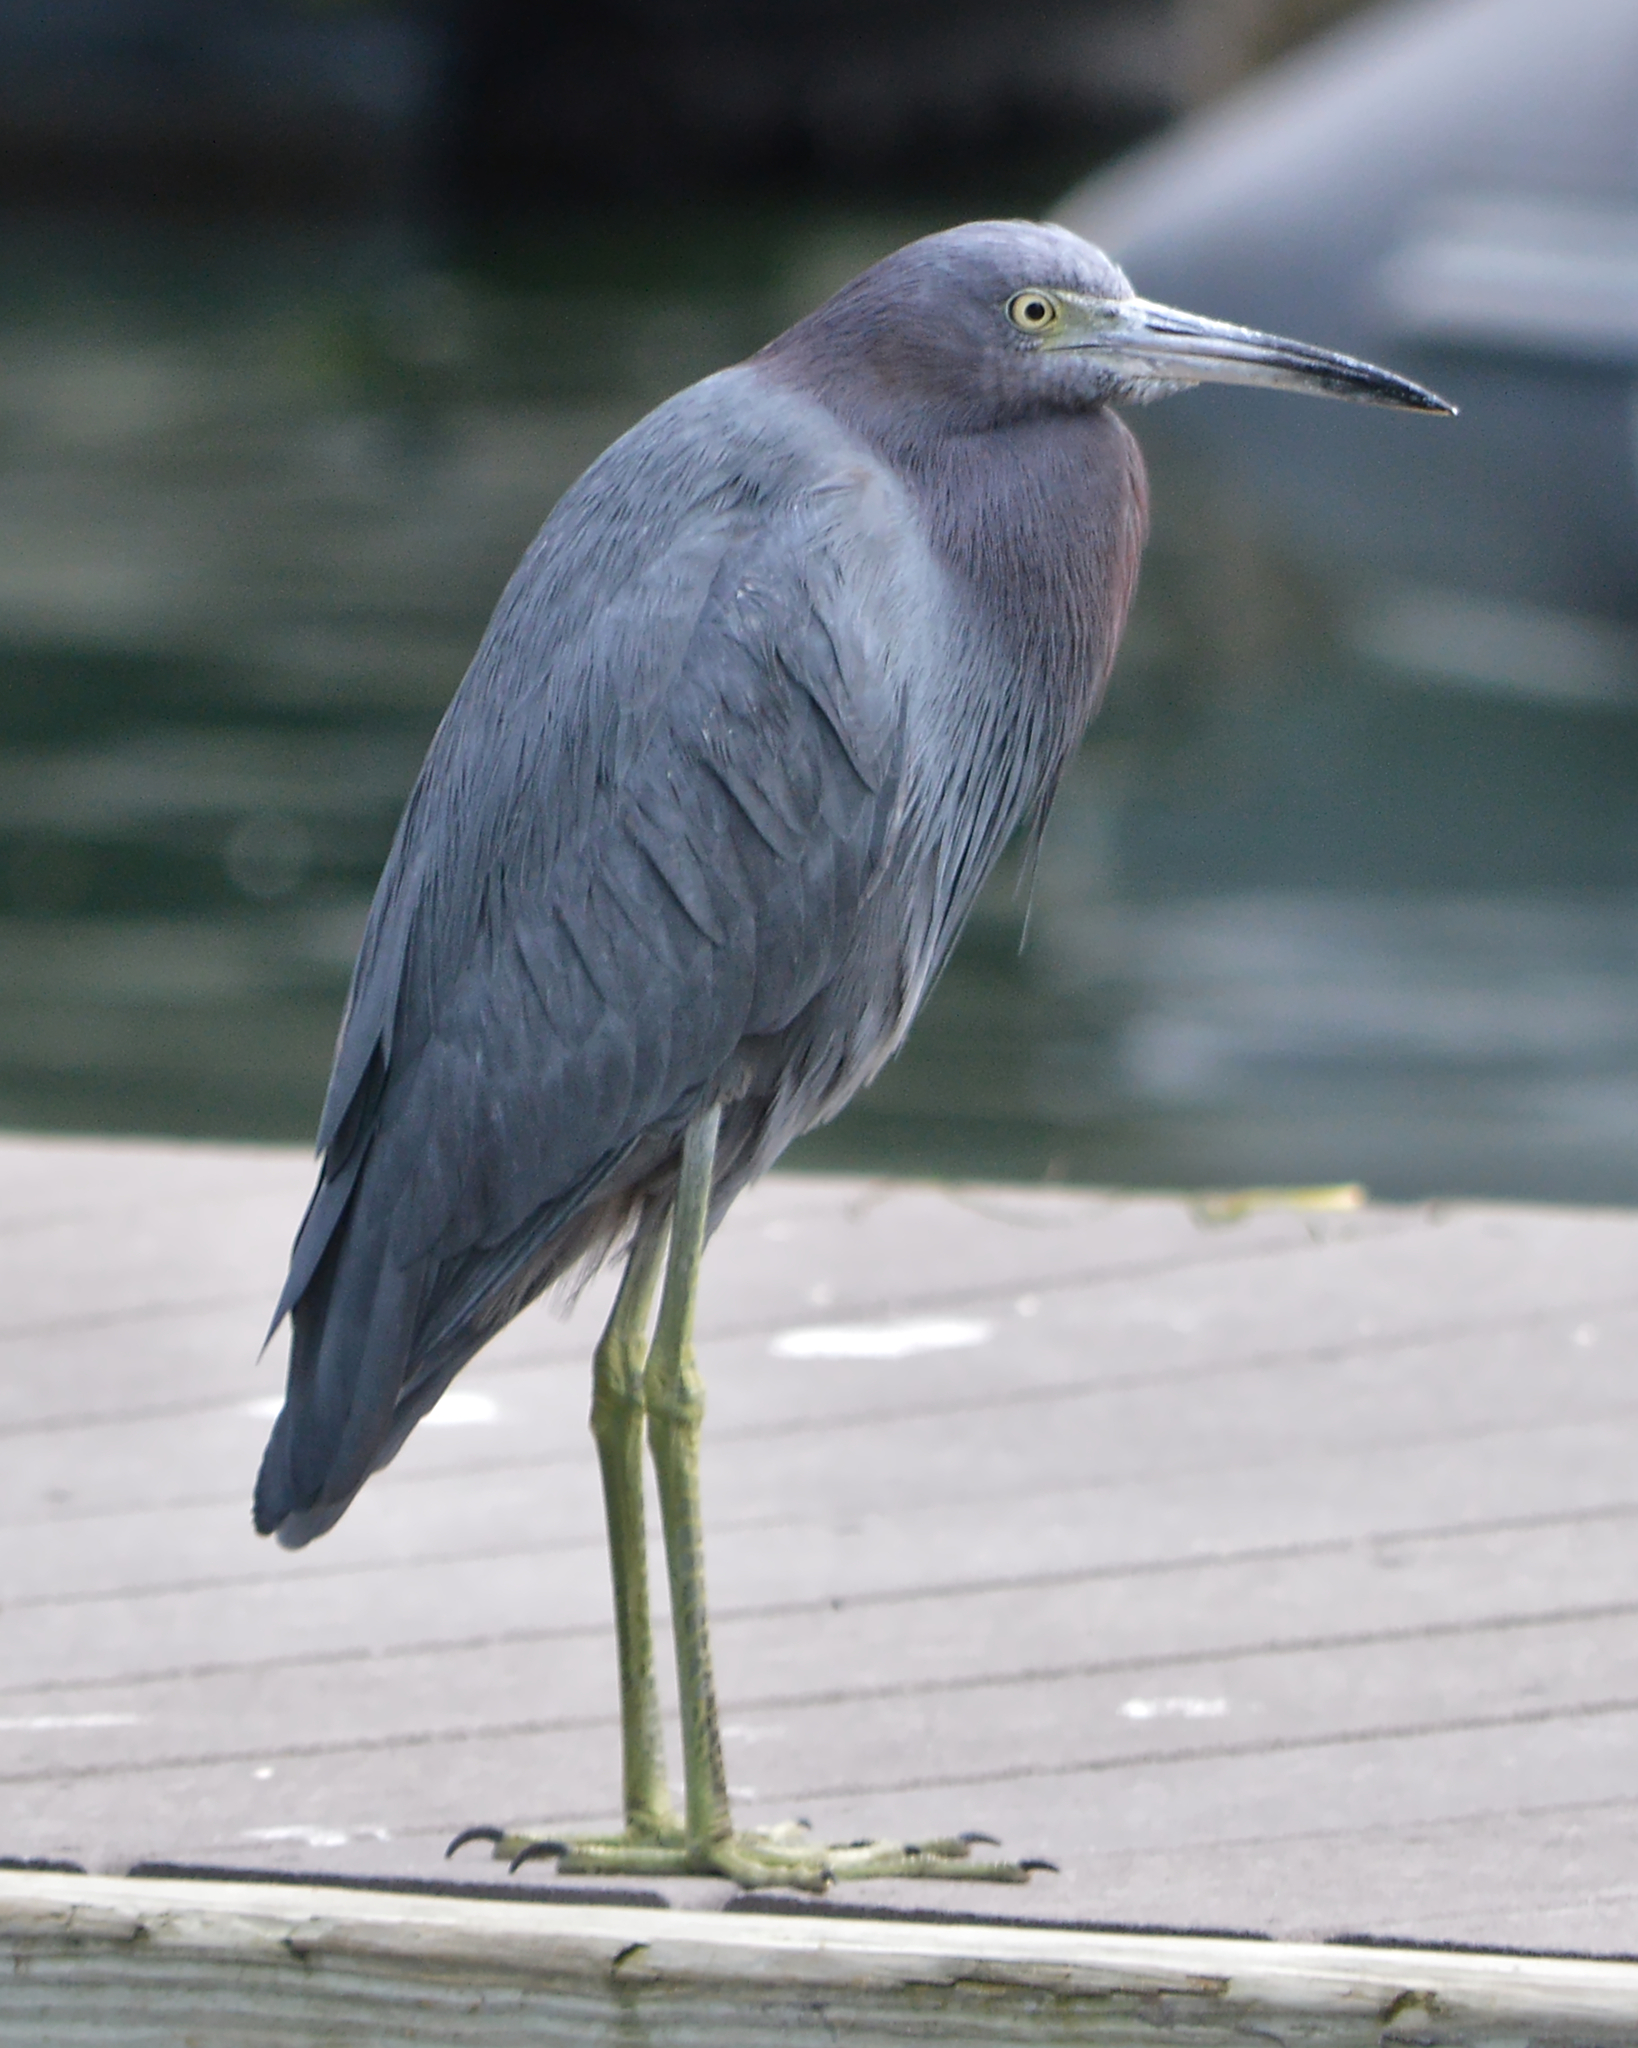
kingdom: Animalia
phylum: Chordata
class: Aves
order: Pelecaniformes
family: Ardeidae
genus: Egretta
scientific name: Egretta caerulea
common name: Little blue heron
